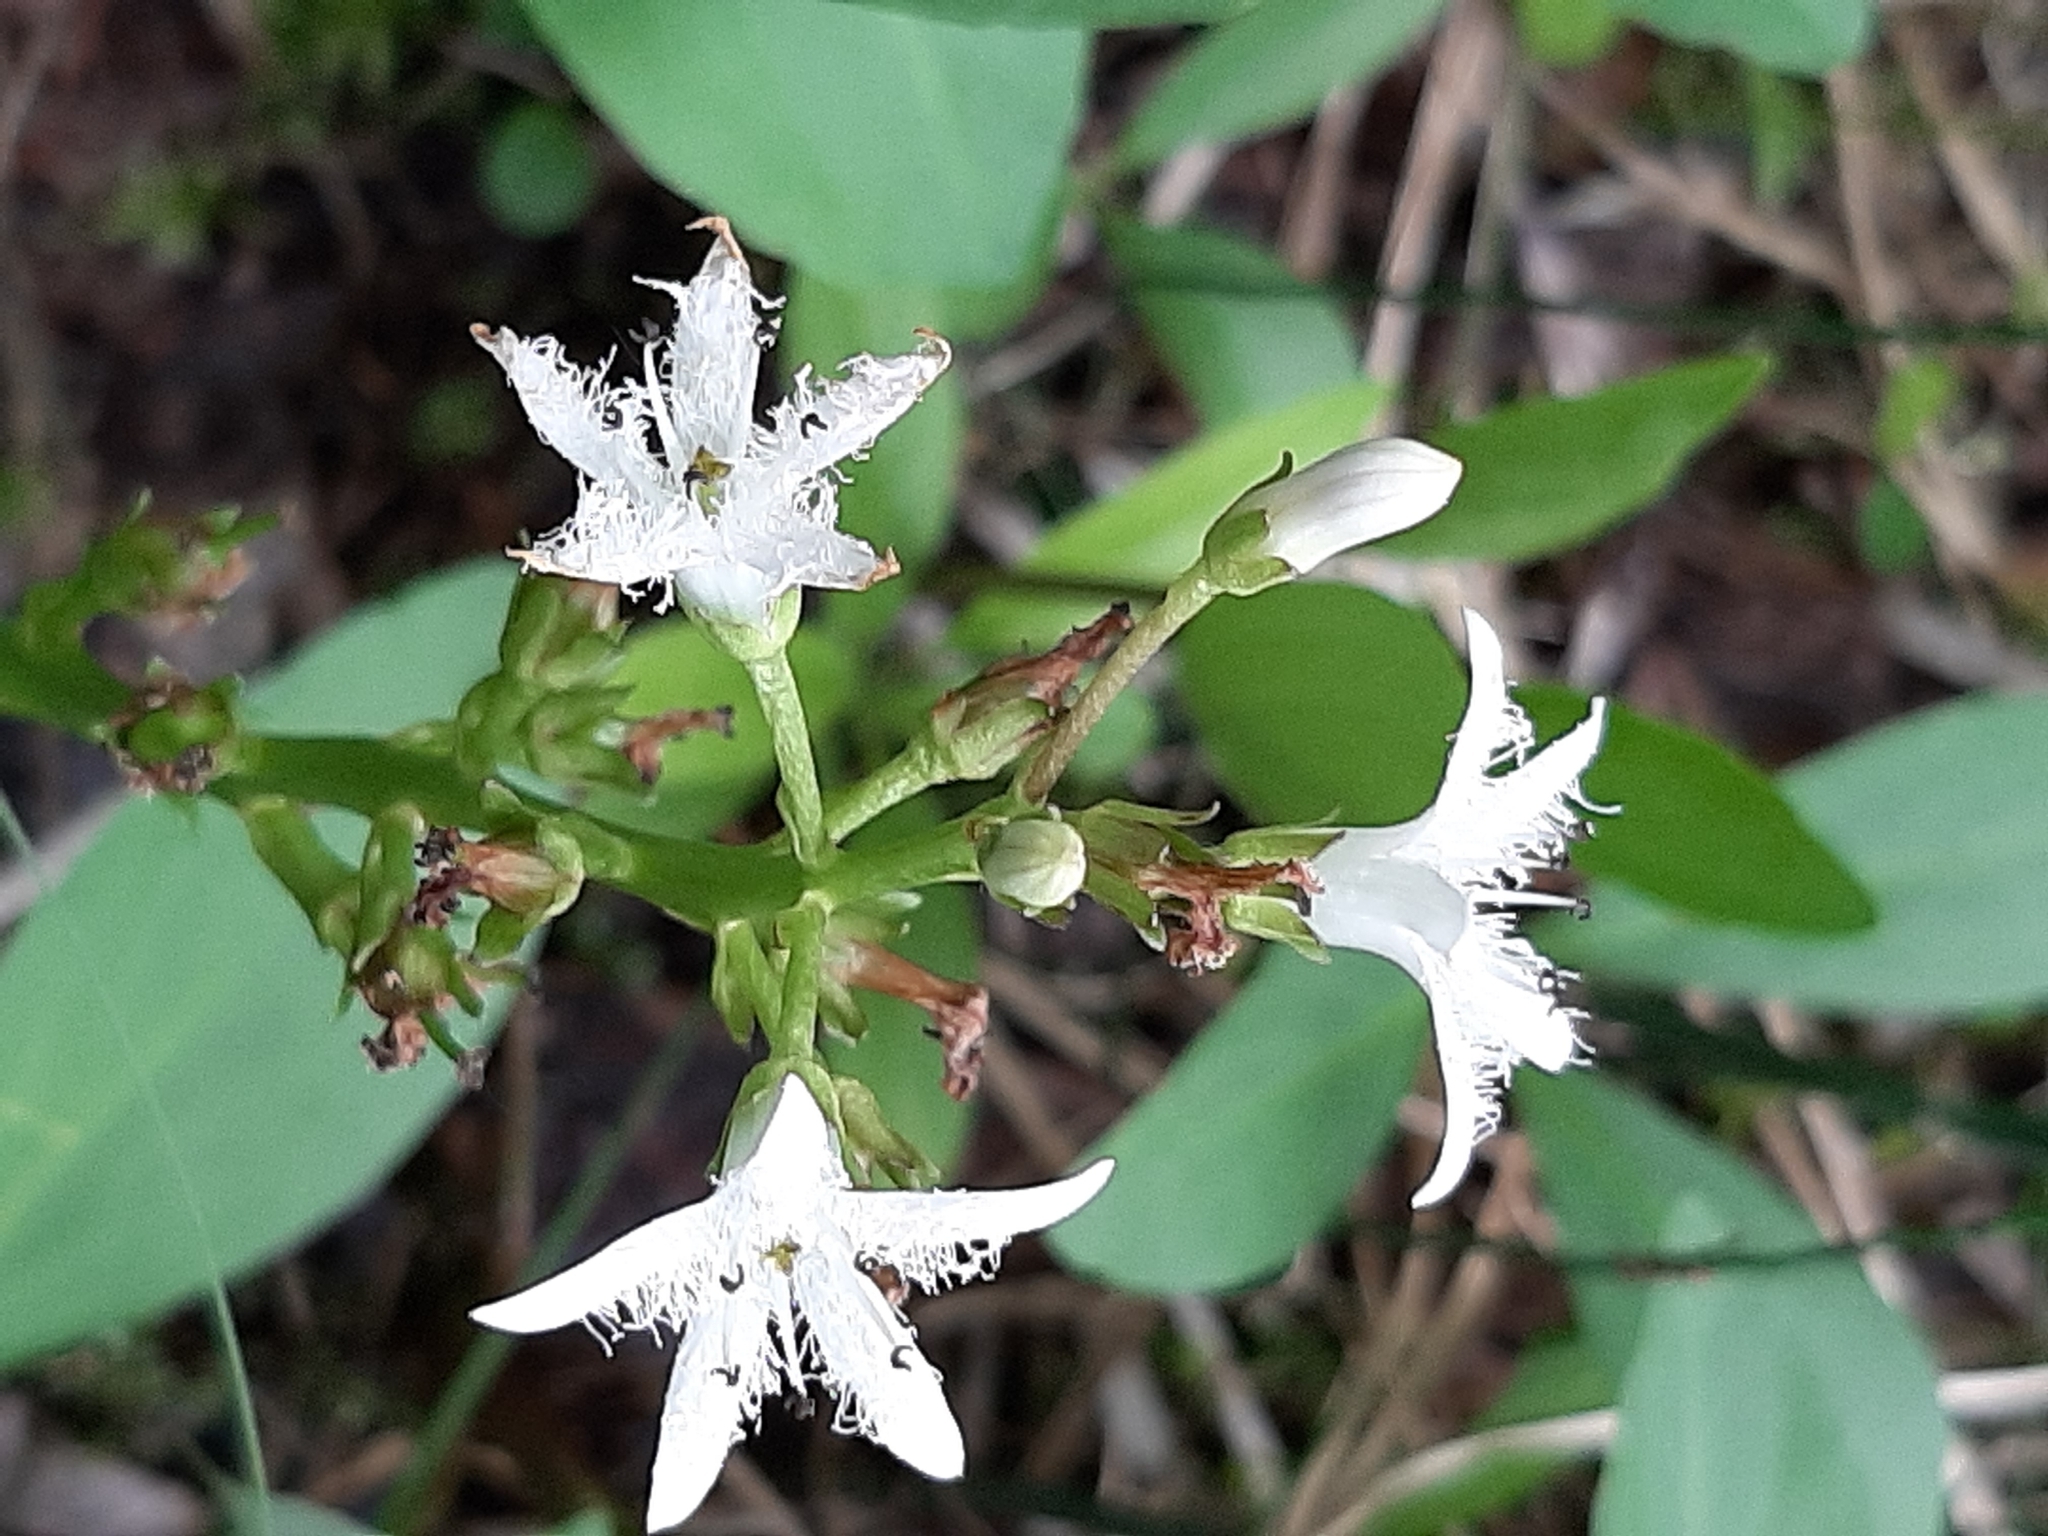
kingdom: Plantae
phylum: Tracheophyta
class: Magnoliopsida
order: Asterales
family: Menyanthaceae
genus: Menyanthes
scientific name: Menyanthes trifoliata
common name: Bogbean
